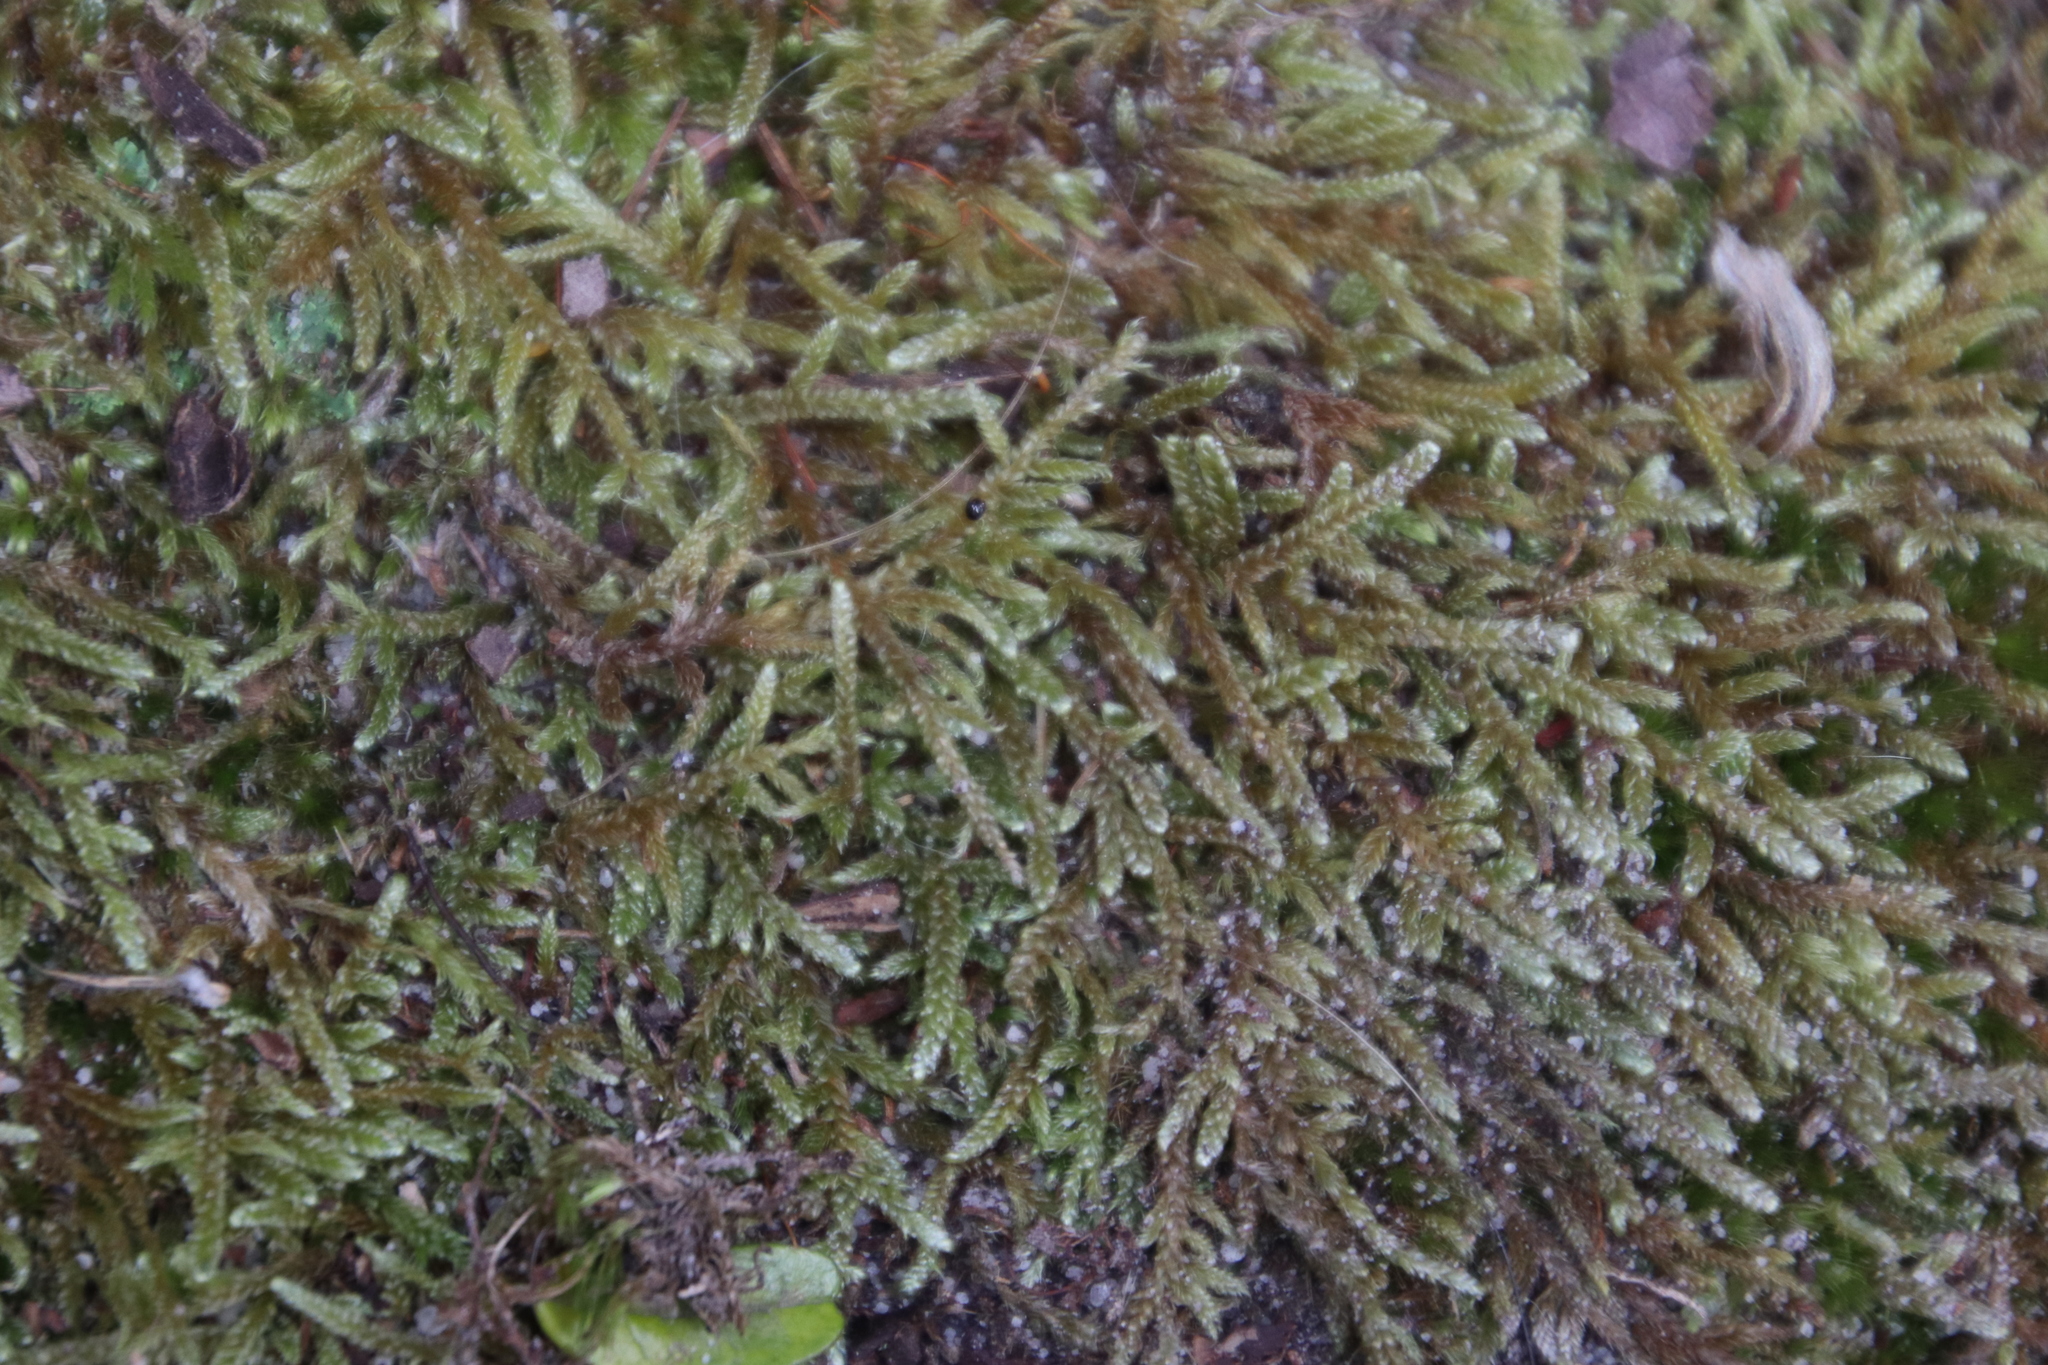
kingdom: Plantae
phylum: Bryophyta
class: Bryopsida
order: Hypnales
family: Hypnaceae
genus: Hypnum
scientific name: Hypnum cupressiforme
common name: Cypress-leaved plait-moss
